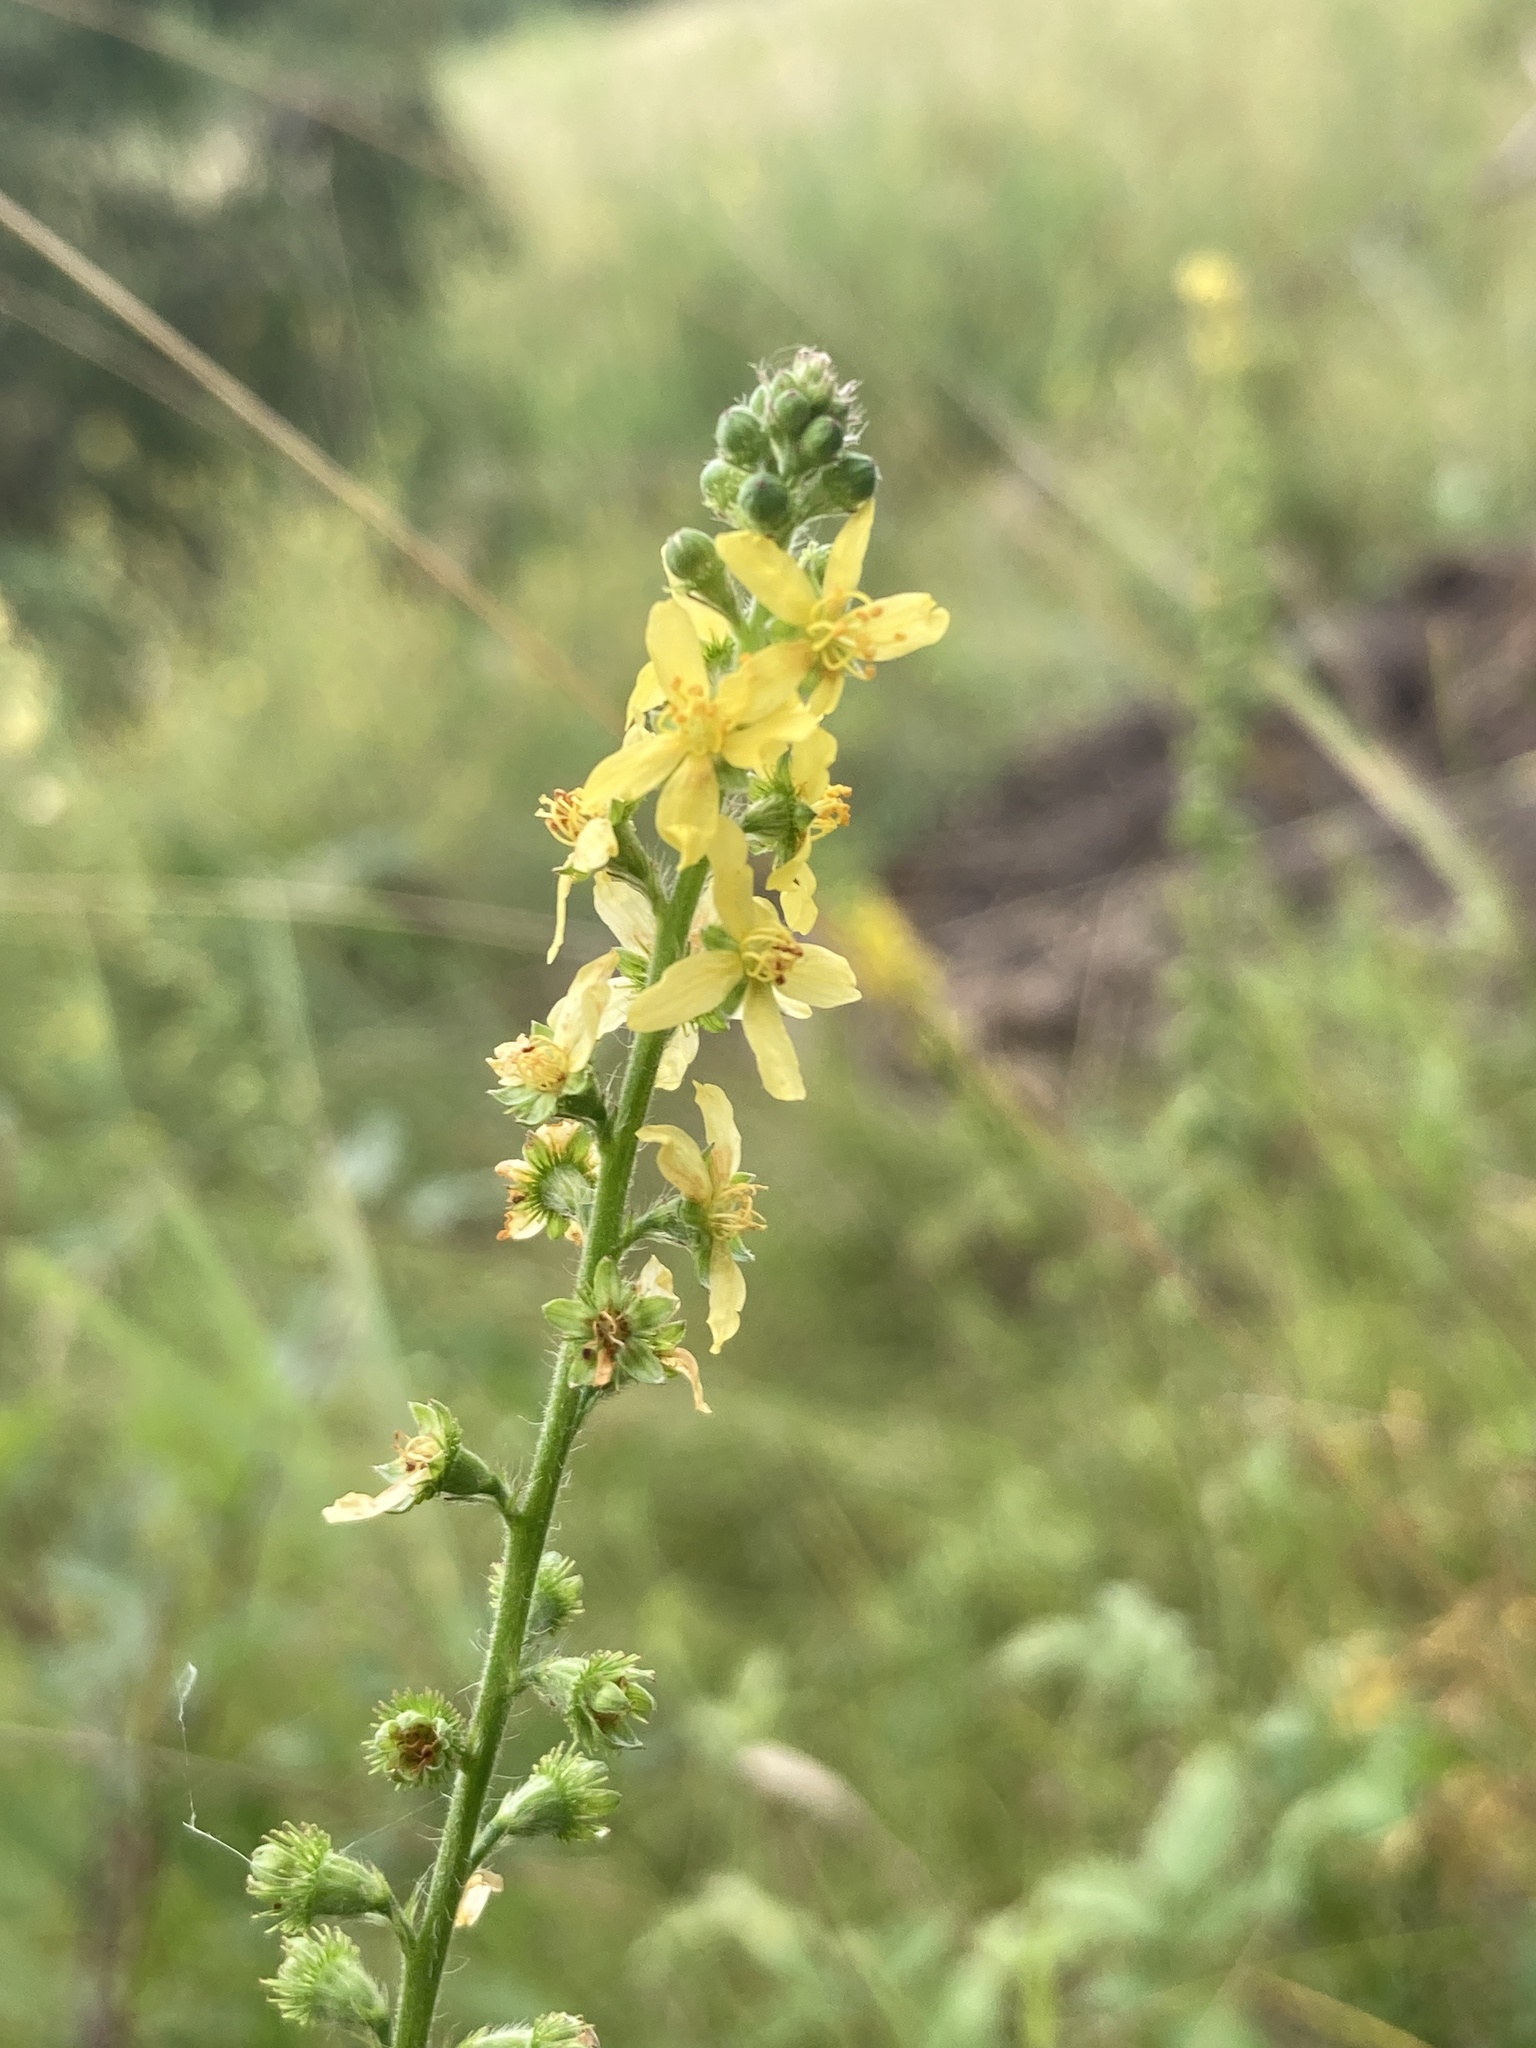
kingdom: Plantae
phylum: Tracheophyta
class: Magnoliopsida
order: Rosales
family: Rosaceae
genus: Agrimonia
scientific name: Agrimonia eupatoria
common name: Agrimony
